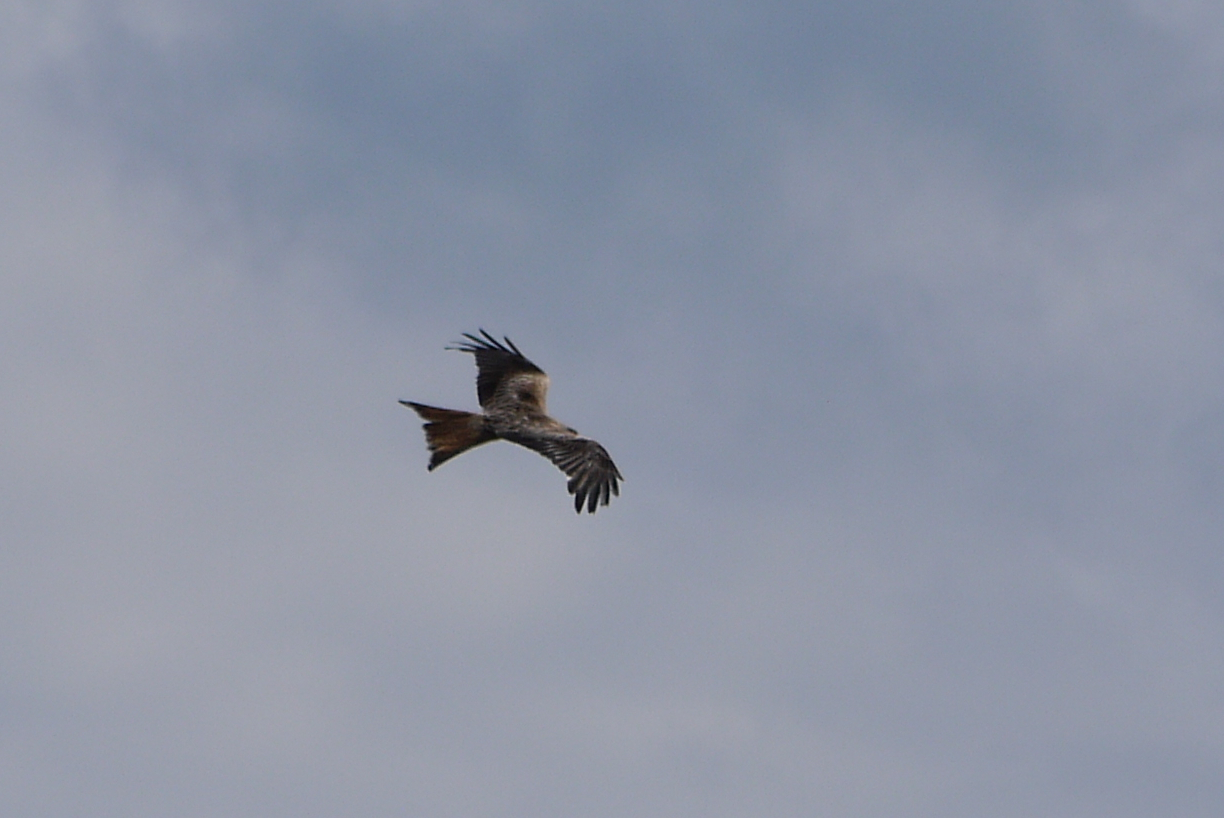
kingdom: Animalia
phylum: Chordata
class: Aves
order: Accipitriformes
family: Accipitridae
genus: Milvus
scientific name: Milvus milvus
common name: Red kite
